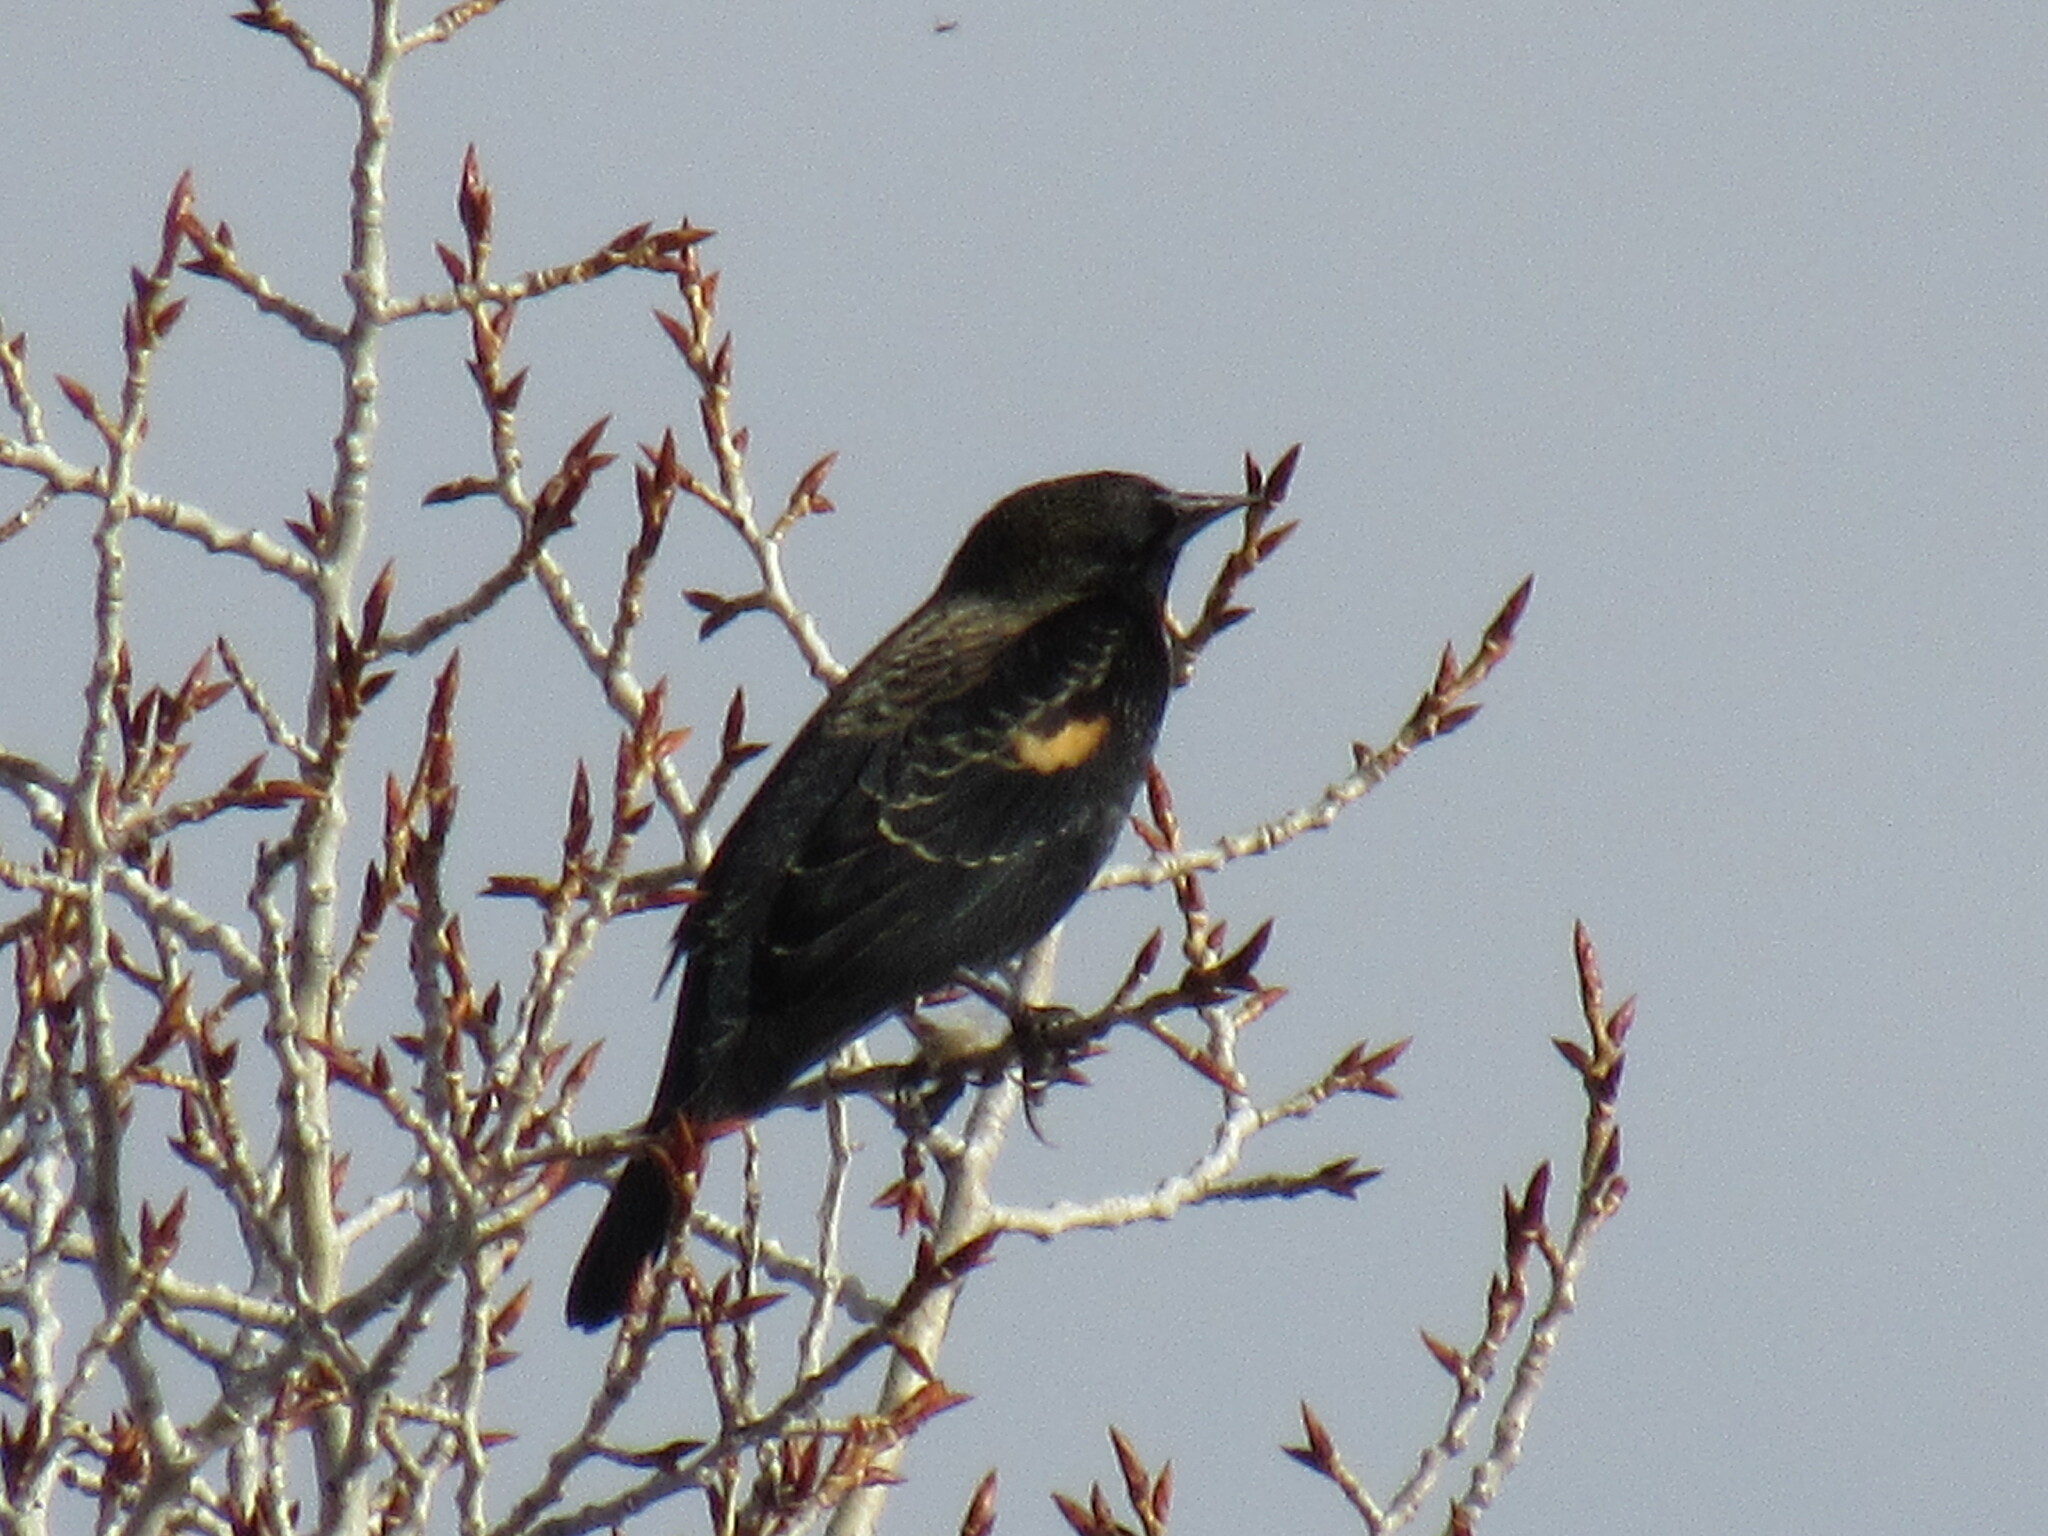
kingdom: Animalia
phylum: Chordata
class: Aves
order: Passeriformes
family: Icteridae
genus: Agelaius
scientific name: Agelaius phoeniceus
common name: Red-winged blackbird
